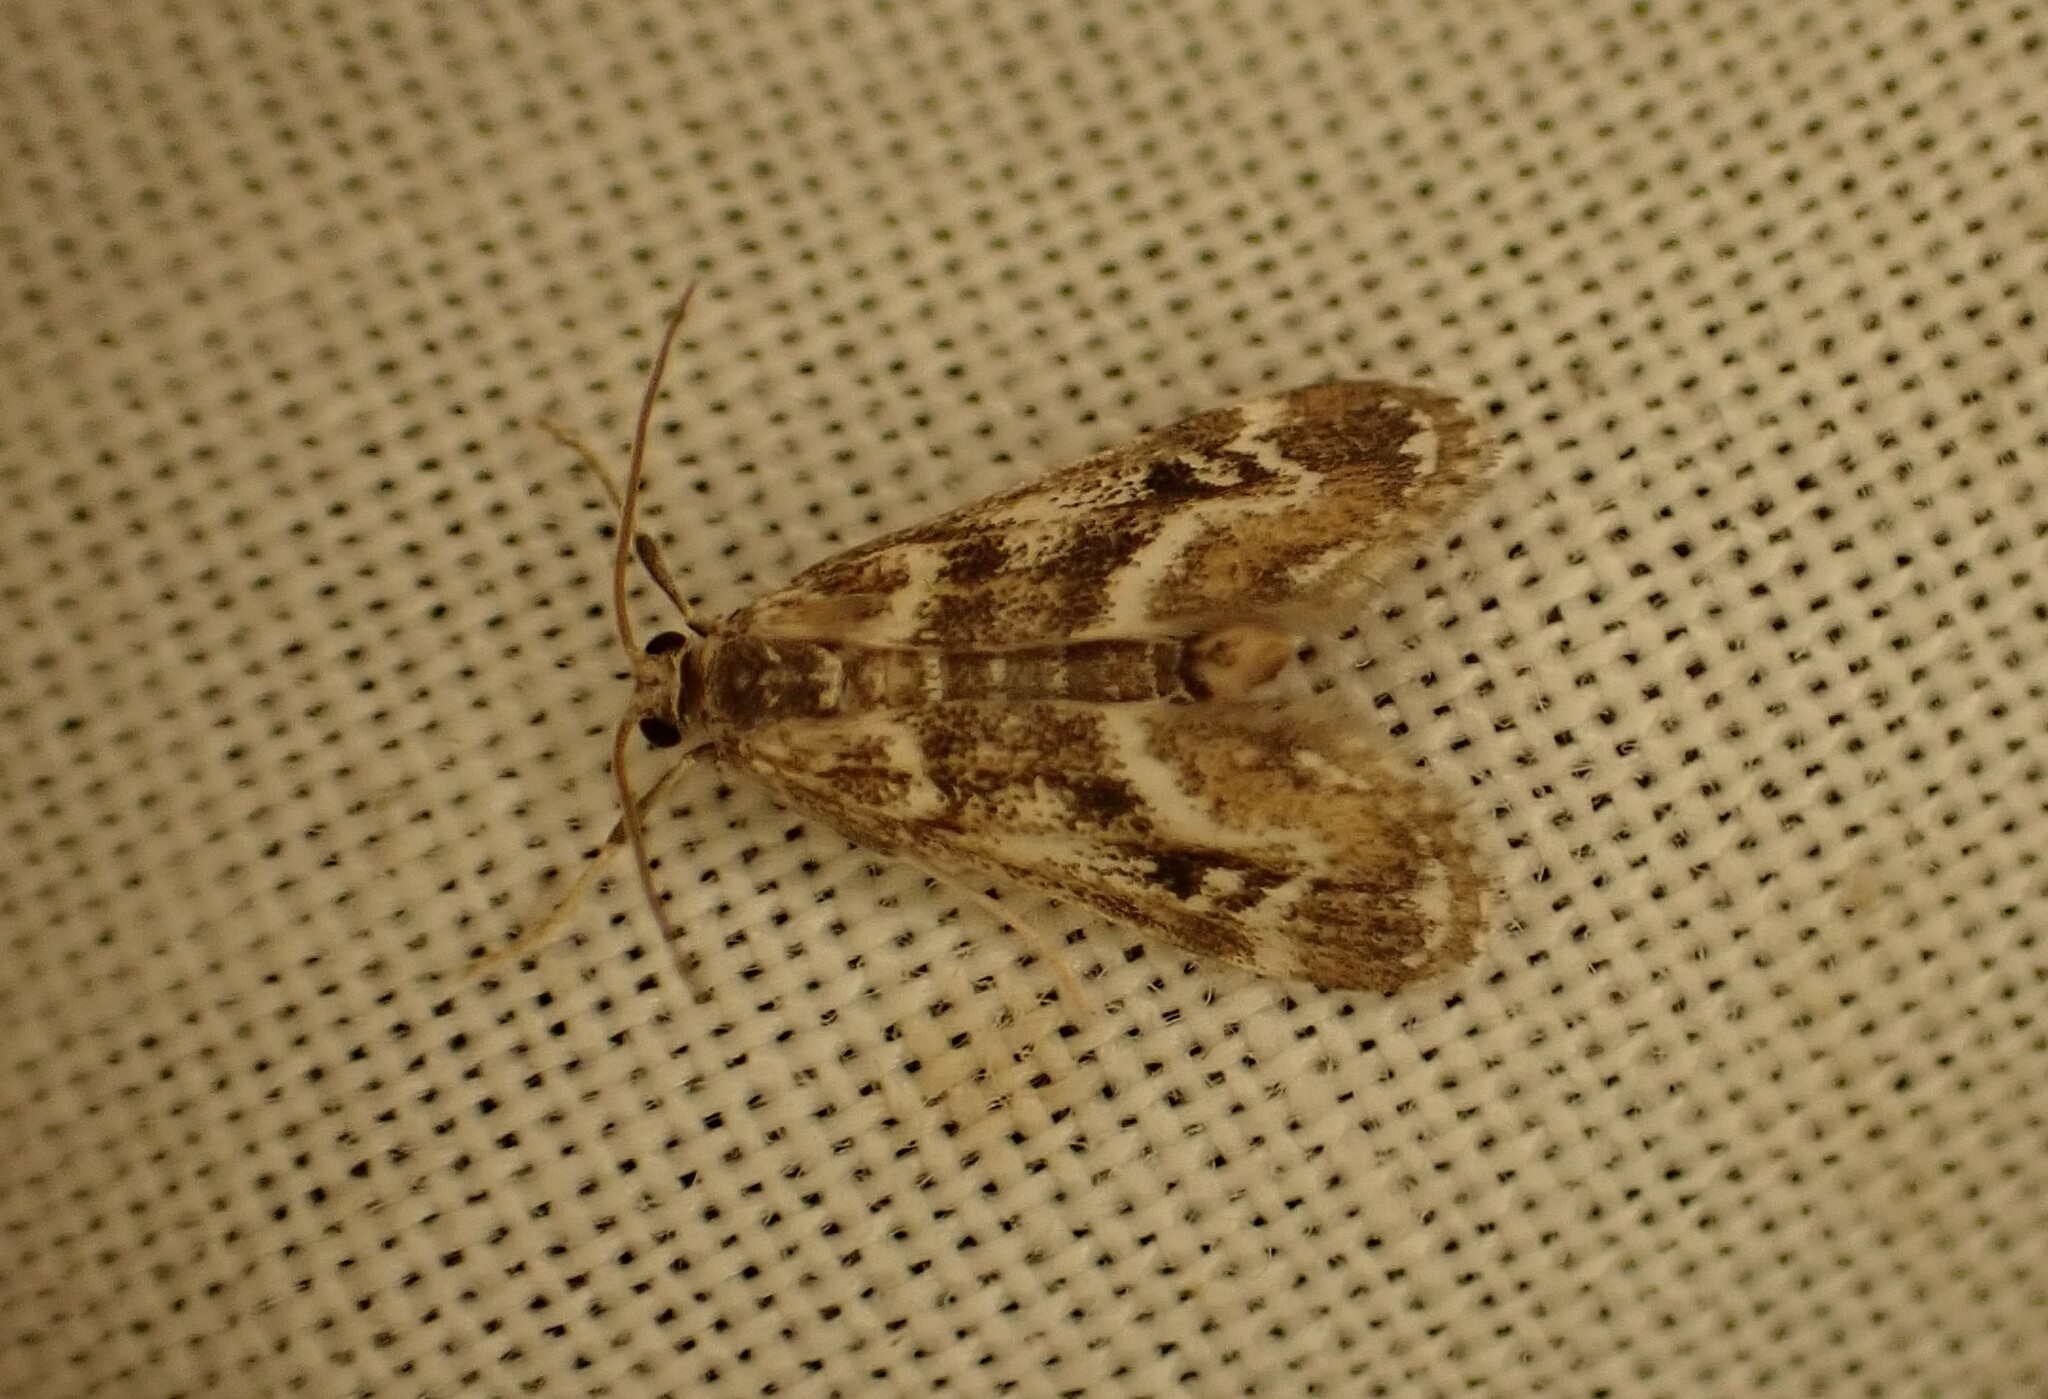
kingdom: Animalia
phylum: Arthropoda
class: Insecta
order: Lepidoptera
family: Crambidae
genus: Hygraula
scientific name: Hygraula nitens
